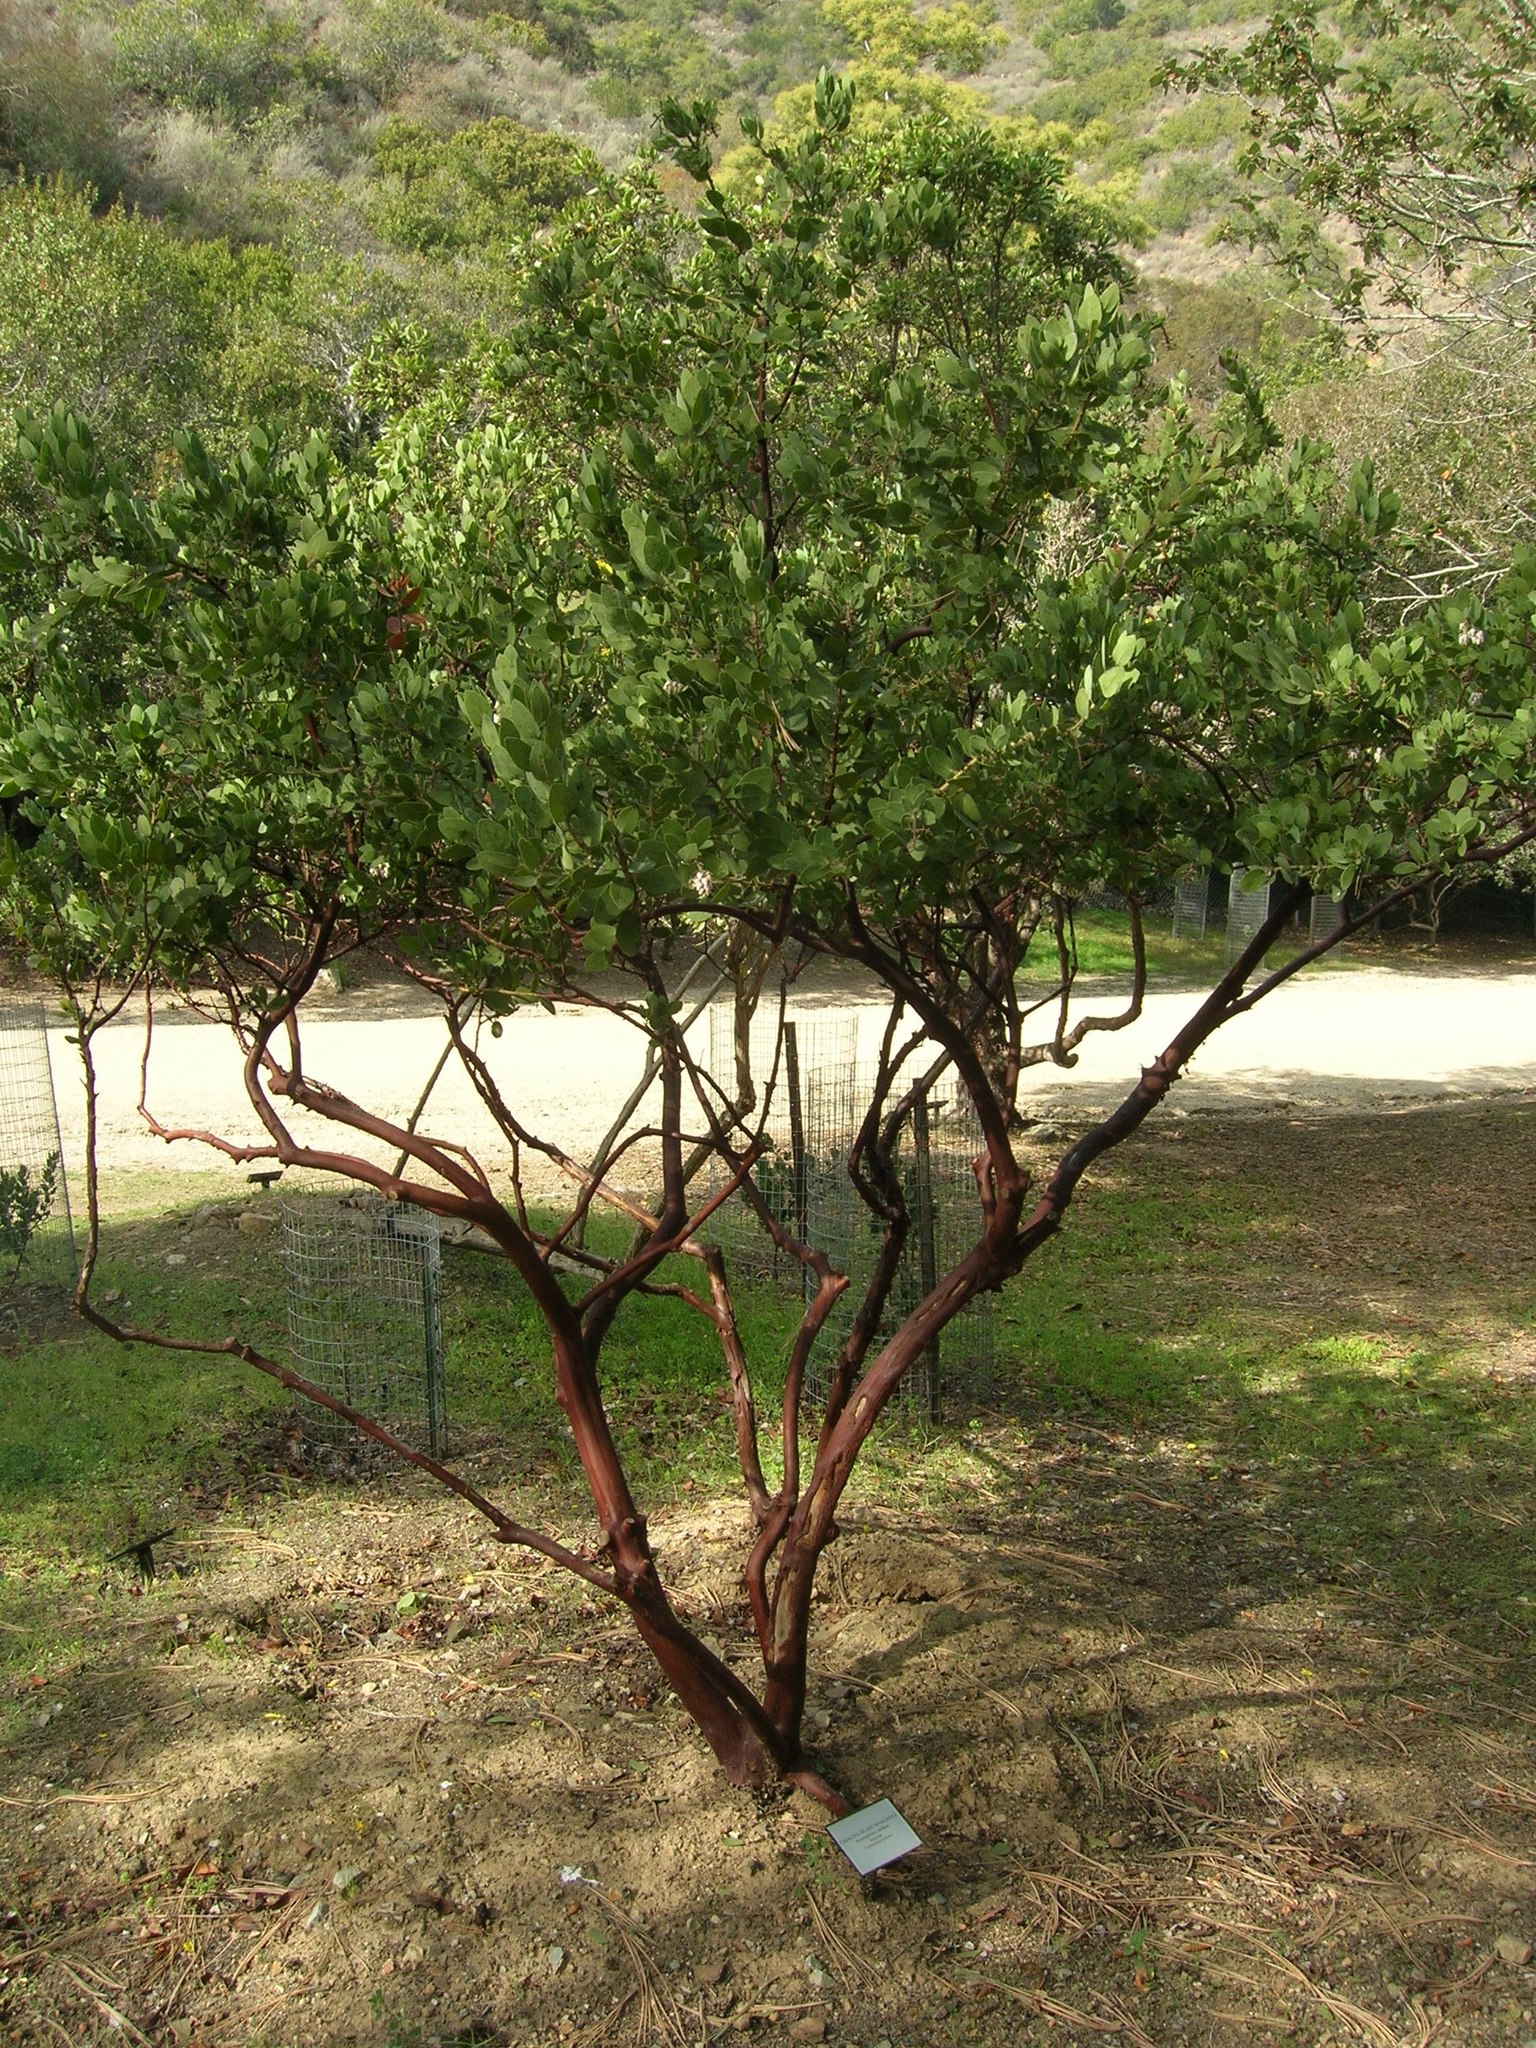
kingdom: Plantae
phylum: Tracheophyta
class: Magnoliopsida
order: Ericales
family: Ericaceae
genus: Arctostaphylos
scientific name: Arctostaphylos catalinae
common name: Santa catalina island manzanita
